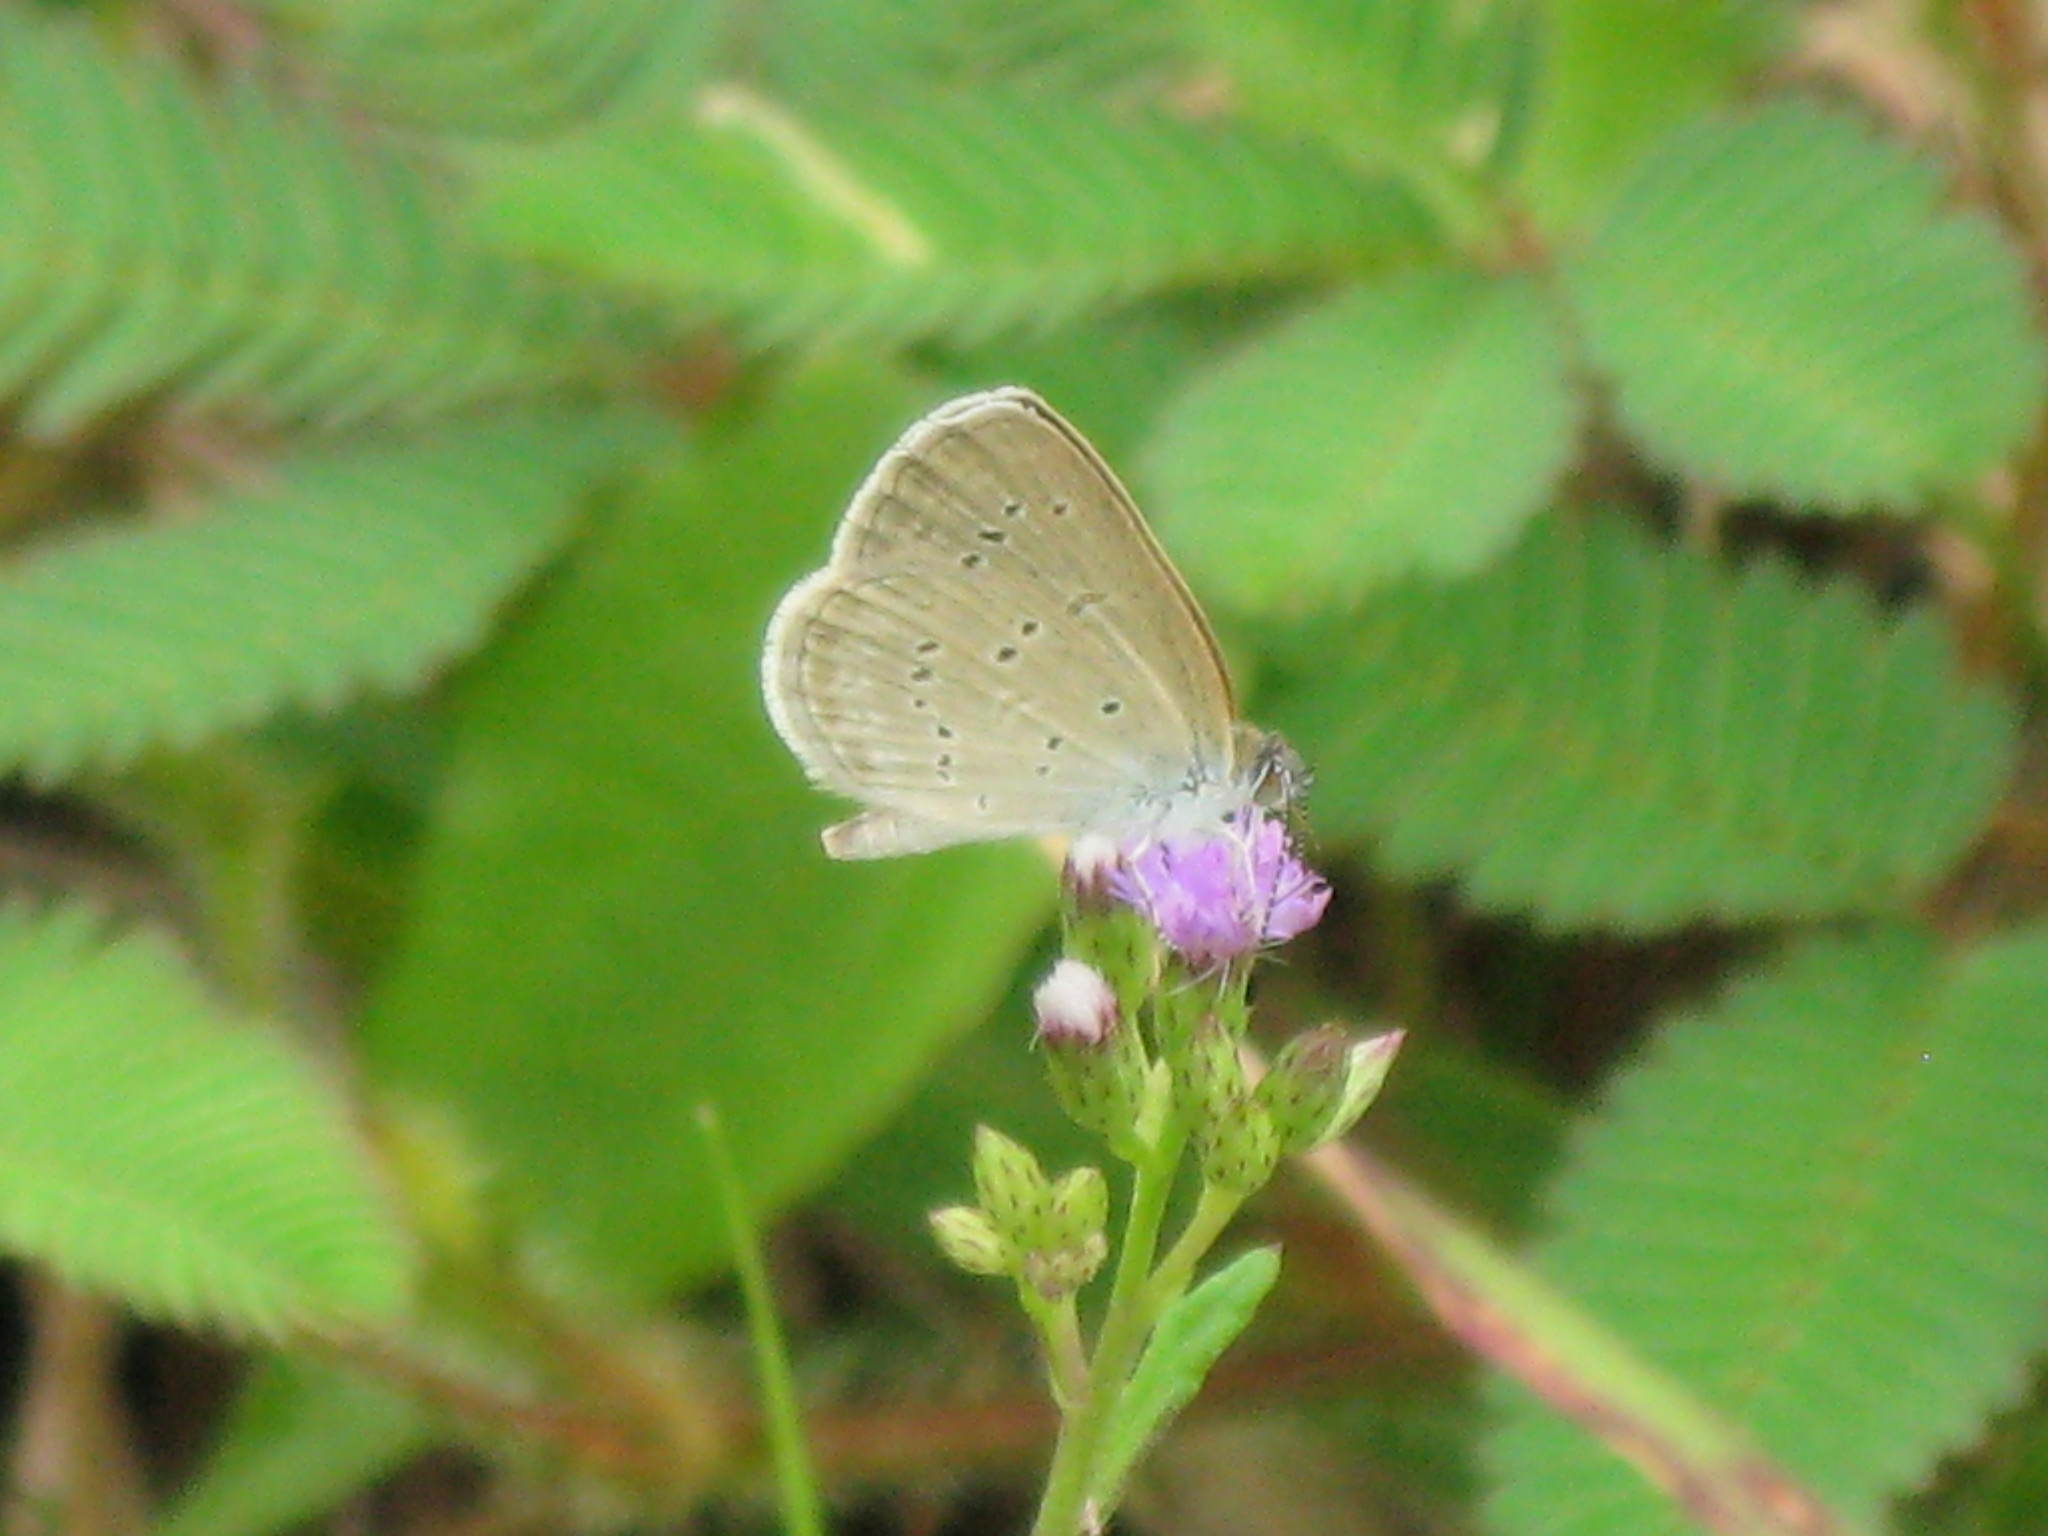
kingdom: Animalia
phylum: Arthropoda
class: Insecta
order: Lepidoptera
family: Lycaenidae
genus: Zizina
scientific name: Zizina otis
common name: Lesser grass blue
